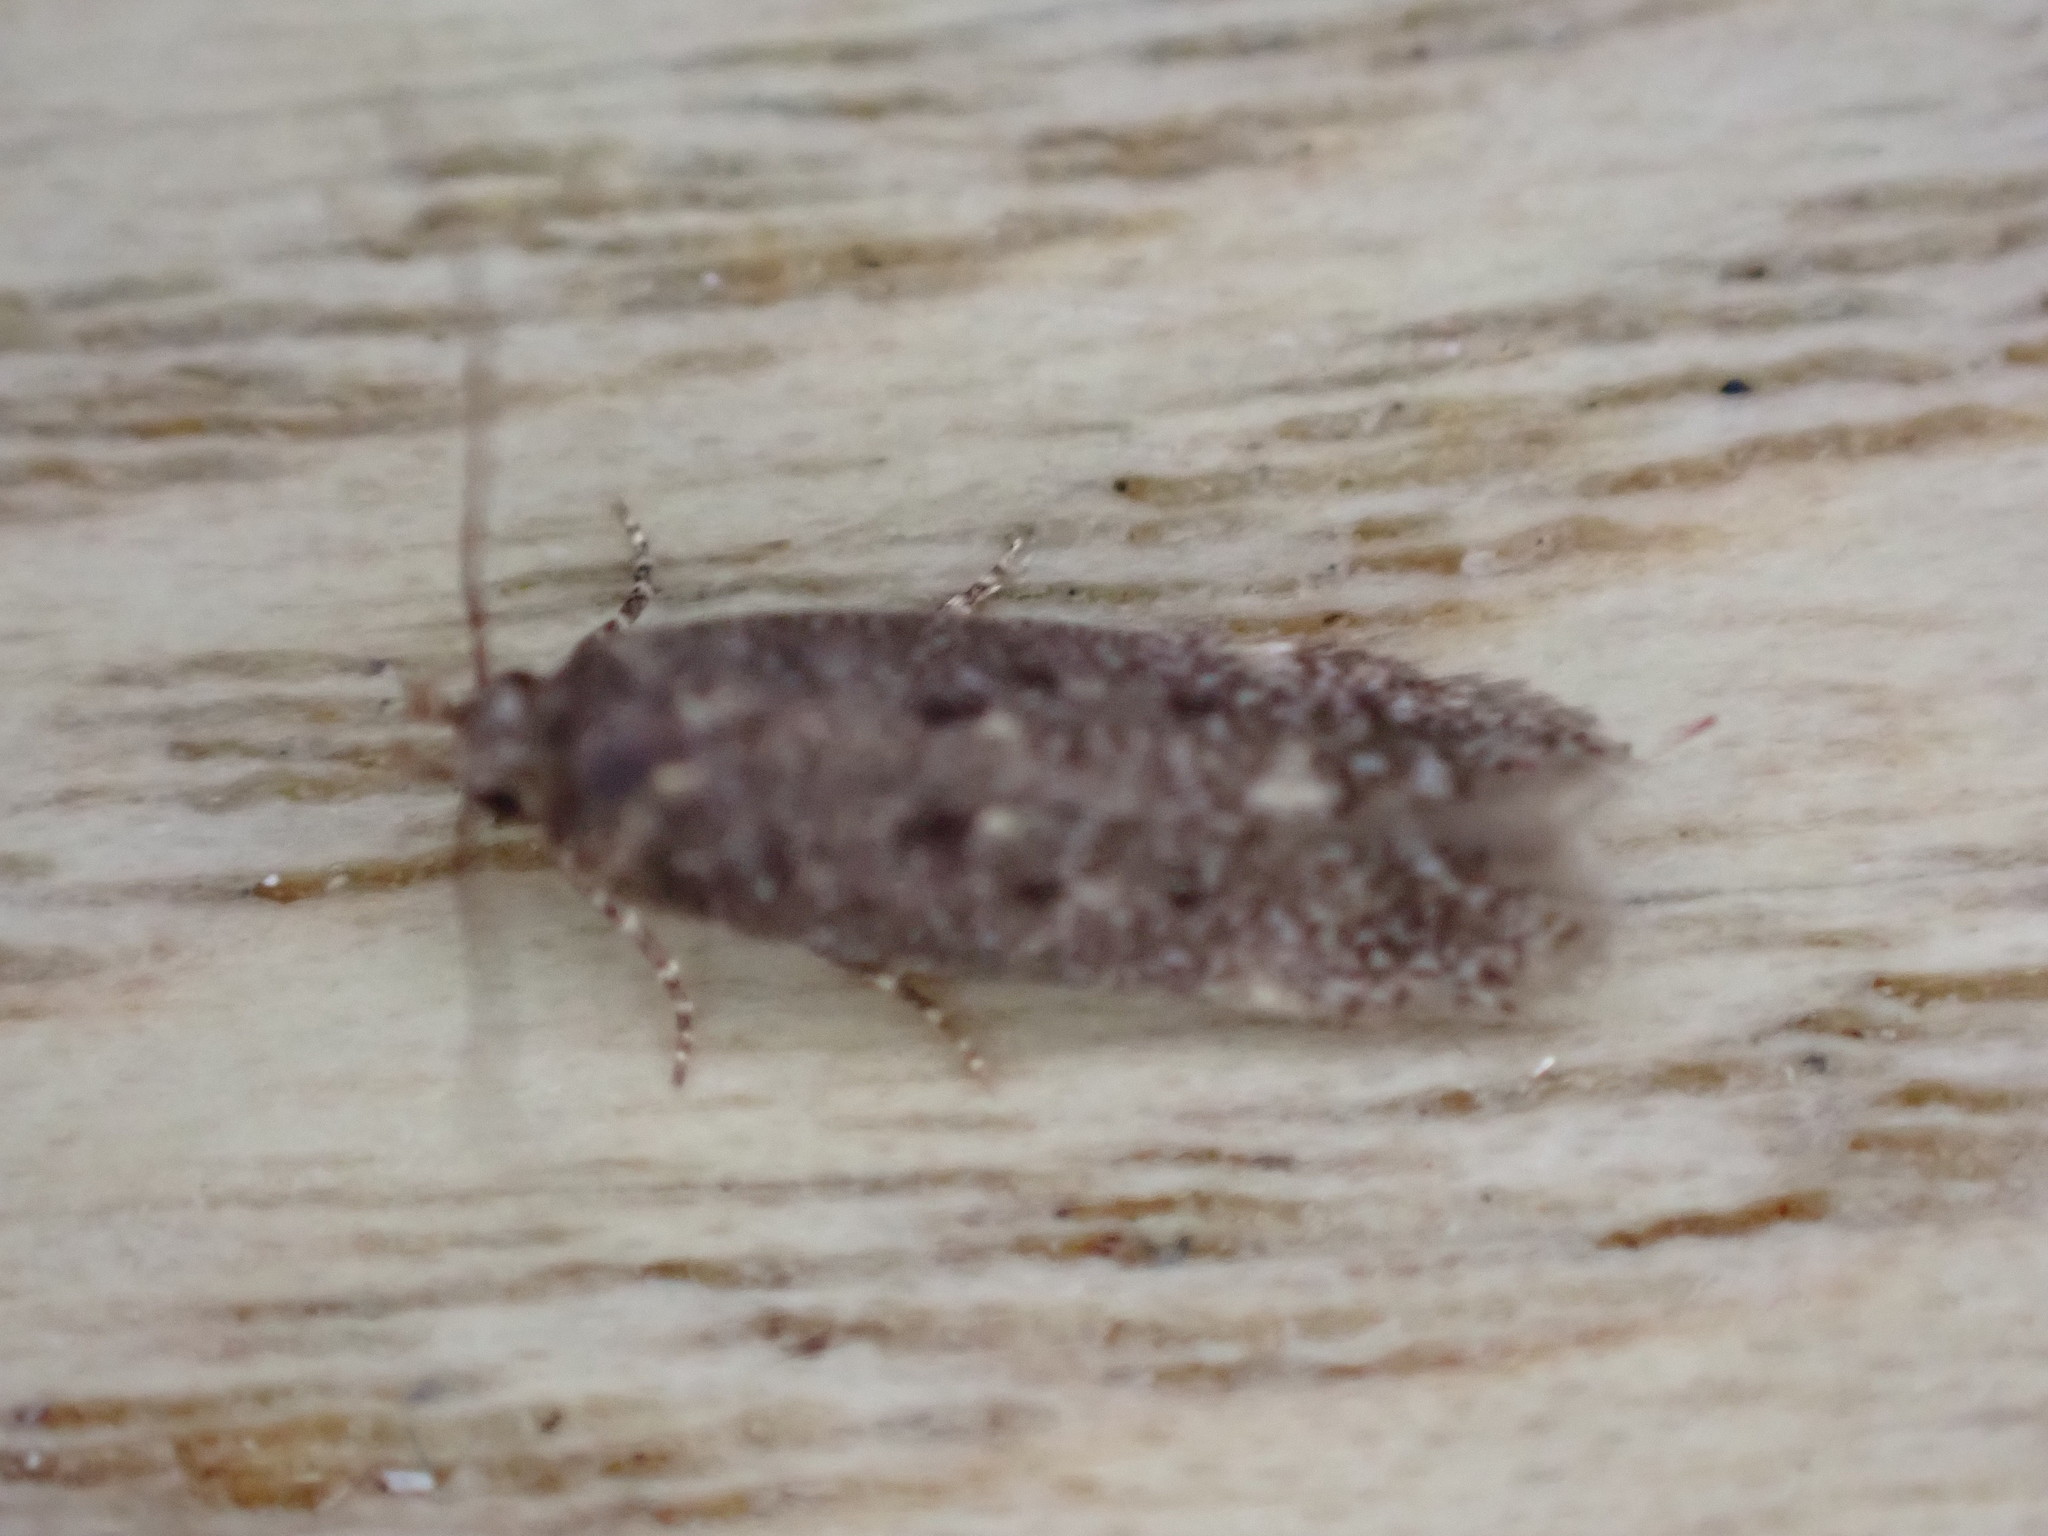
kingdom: Animalia
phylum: Arthropoda
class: Insecta
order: Lepidoptera
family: Gelechiidae
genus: Bryotropha
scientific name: Bryotropha affinis
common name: Dark groundling
